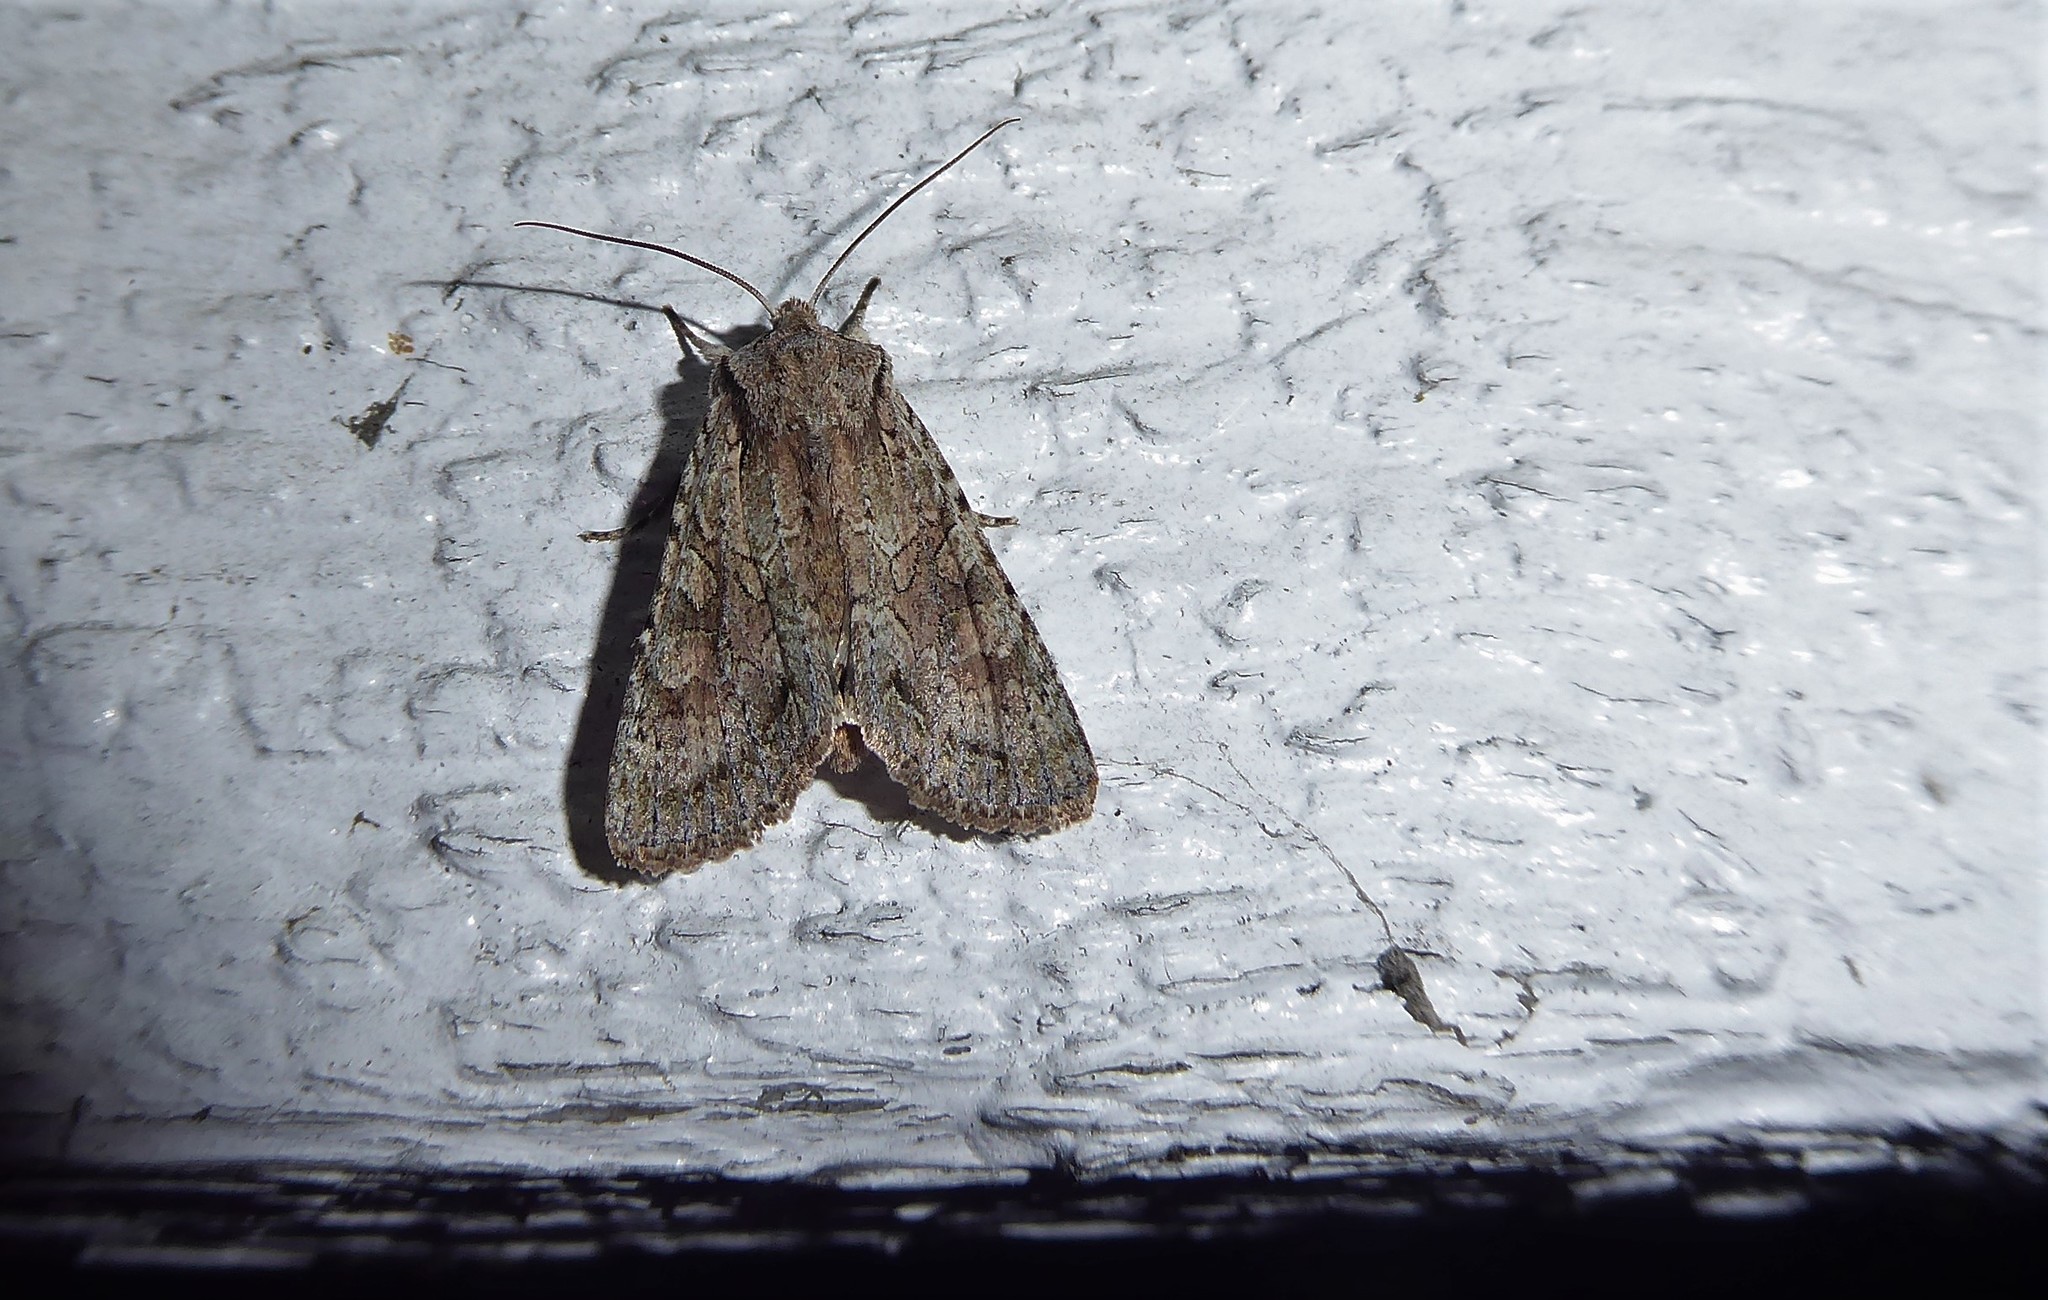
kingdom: Animalia
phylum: Arthropoda
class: Insecta
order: Lepidoptera
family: Noctuidae
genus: Ichneutica
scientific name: Ichneutica mutans
